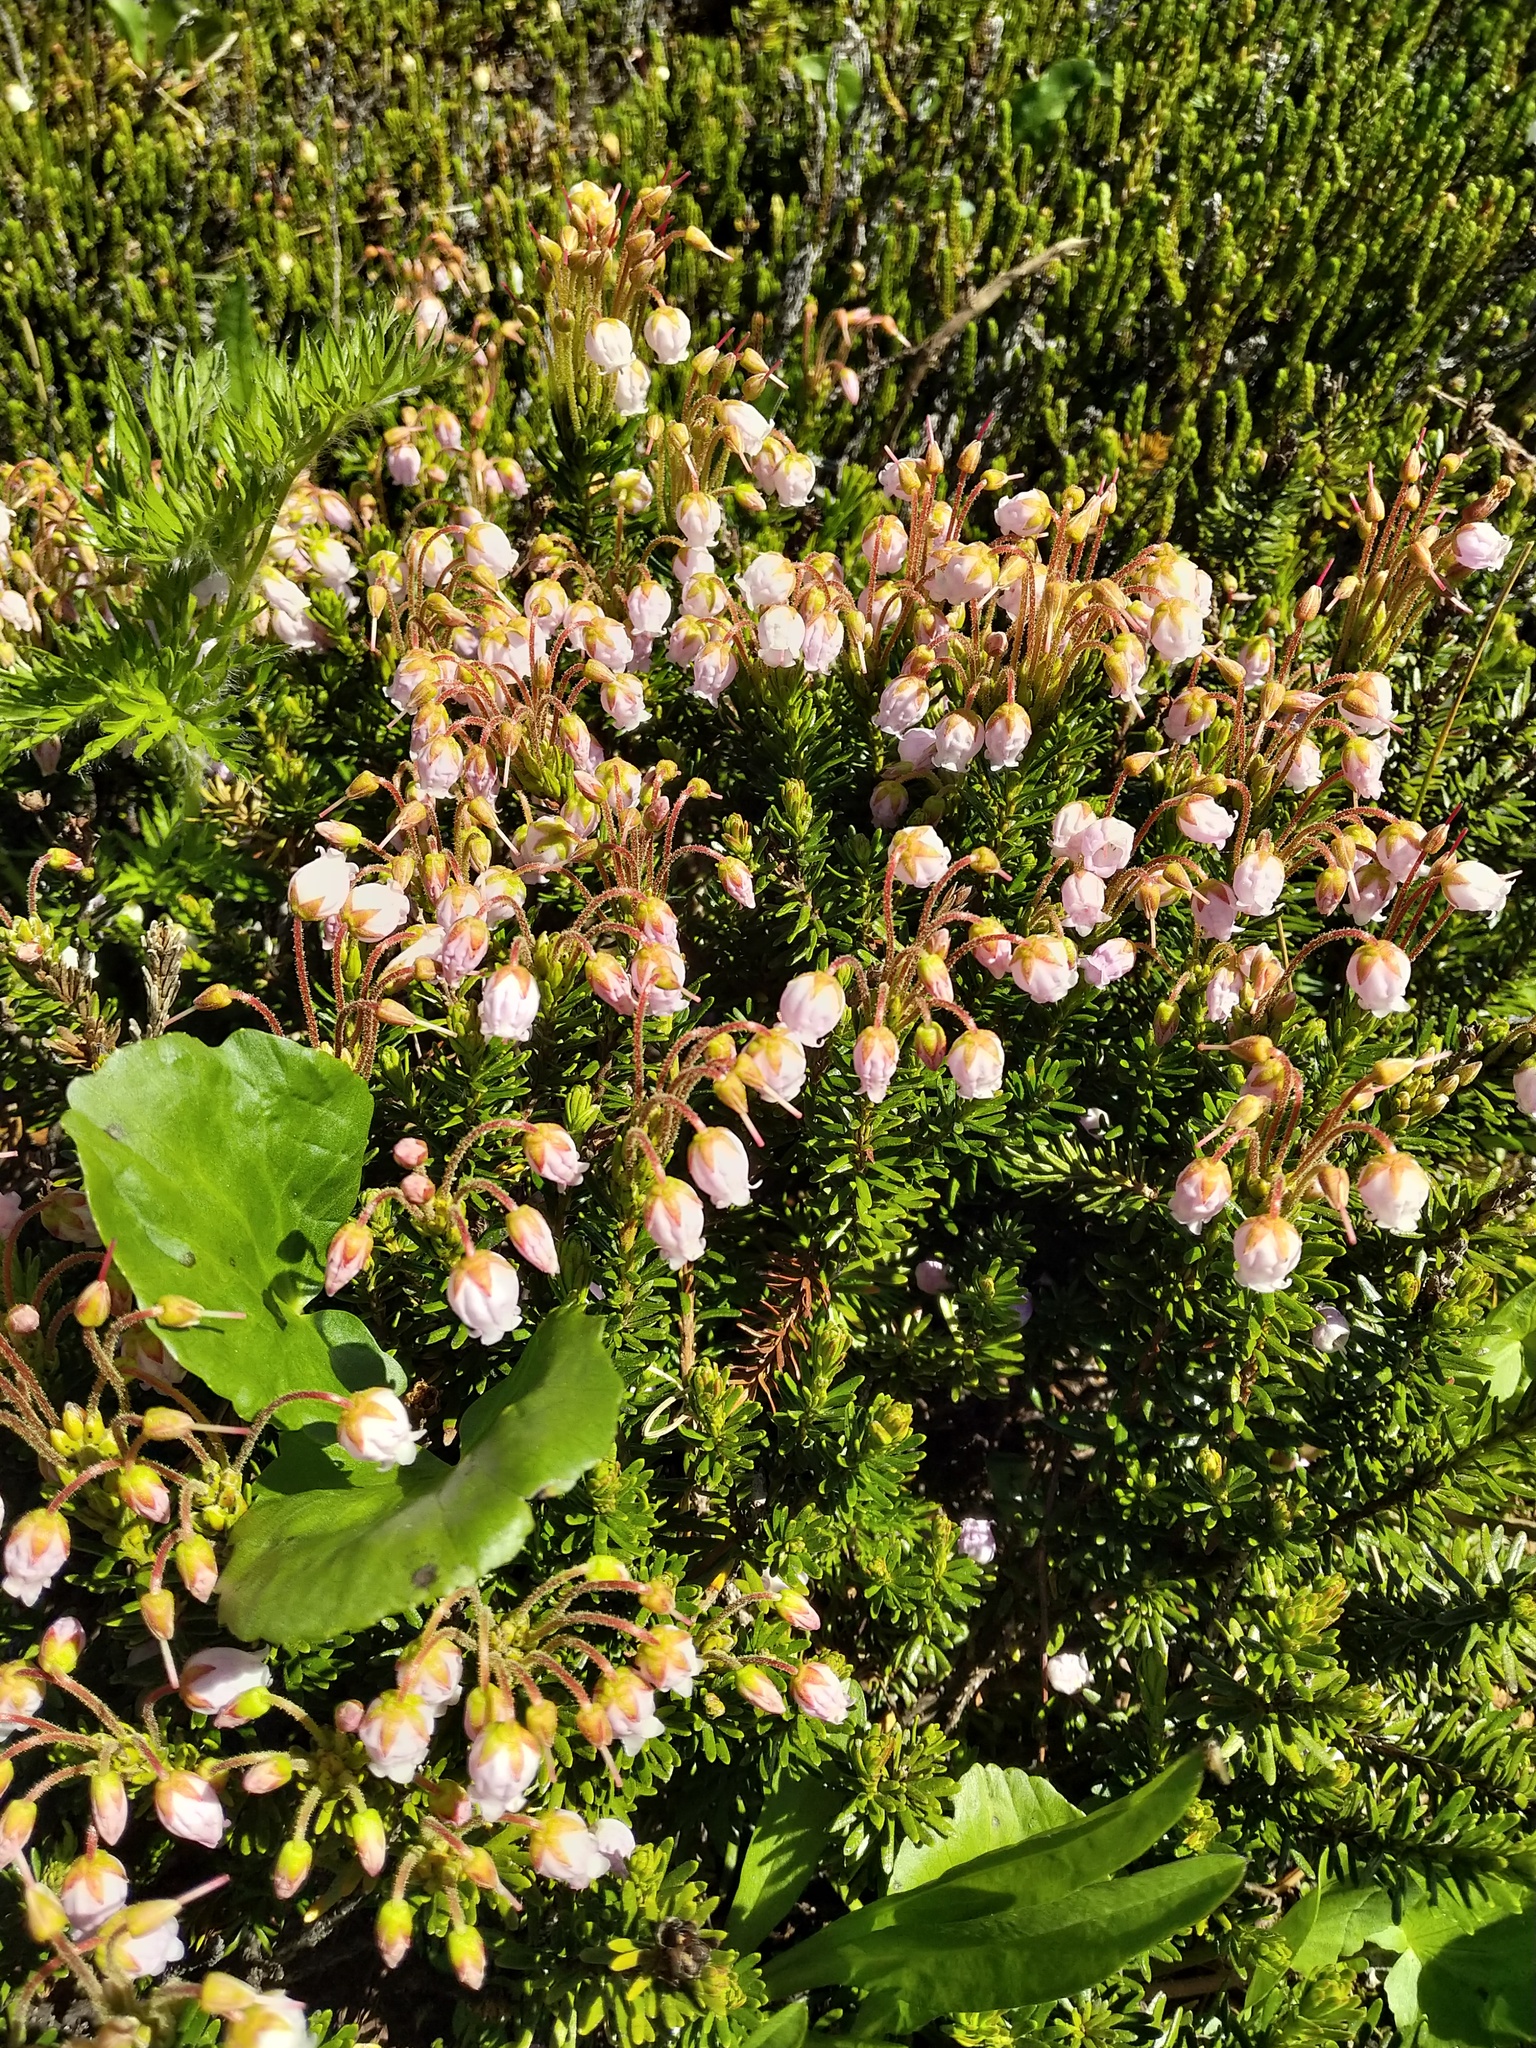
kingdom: Plantae
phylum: Tracheophyta
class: Magnoliopsida
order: Ericales
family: Ericaceae
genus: Phyllodoce
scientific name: Phyllodoce empetriformis
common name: Pink mountain heather
